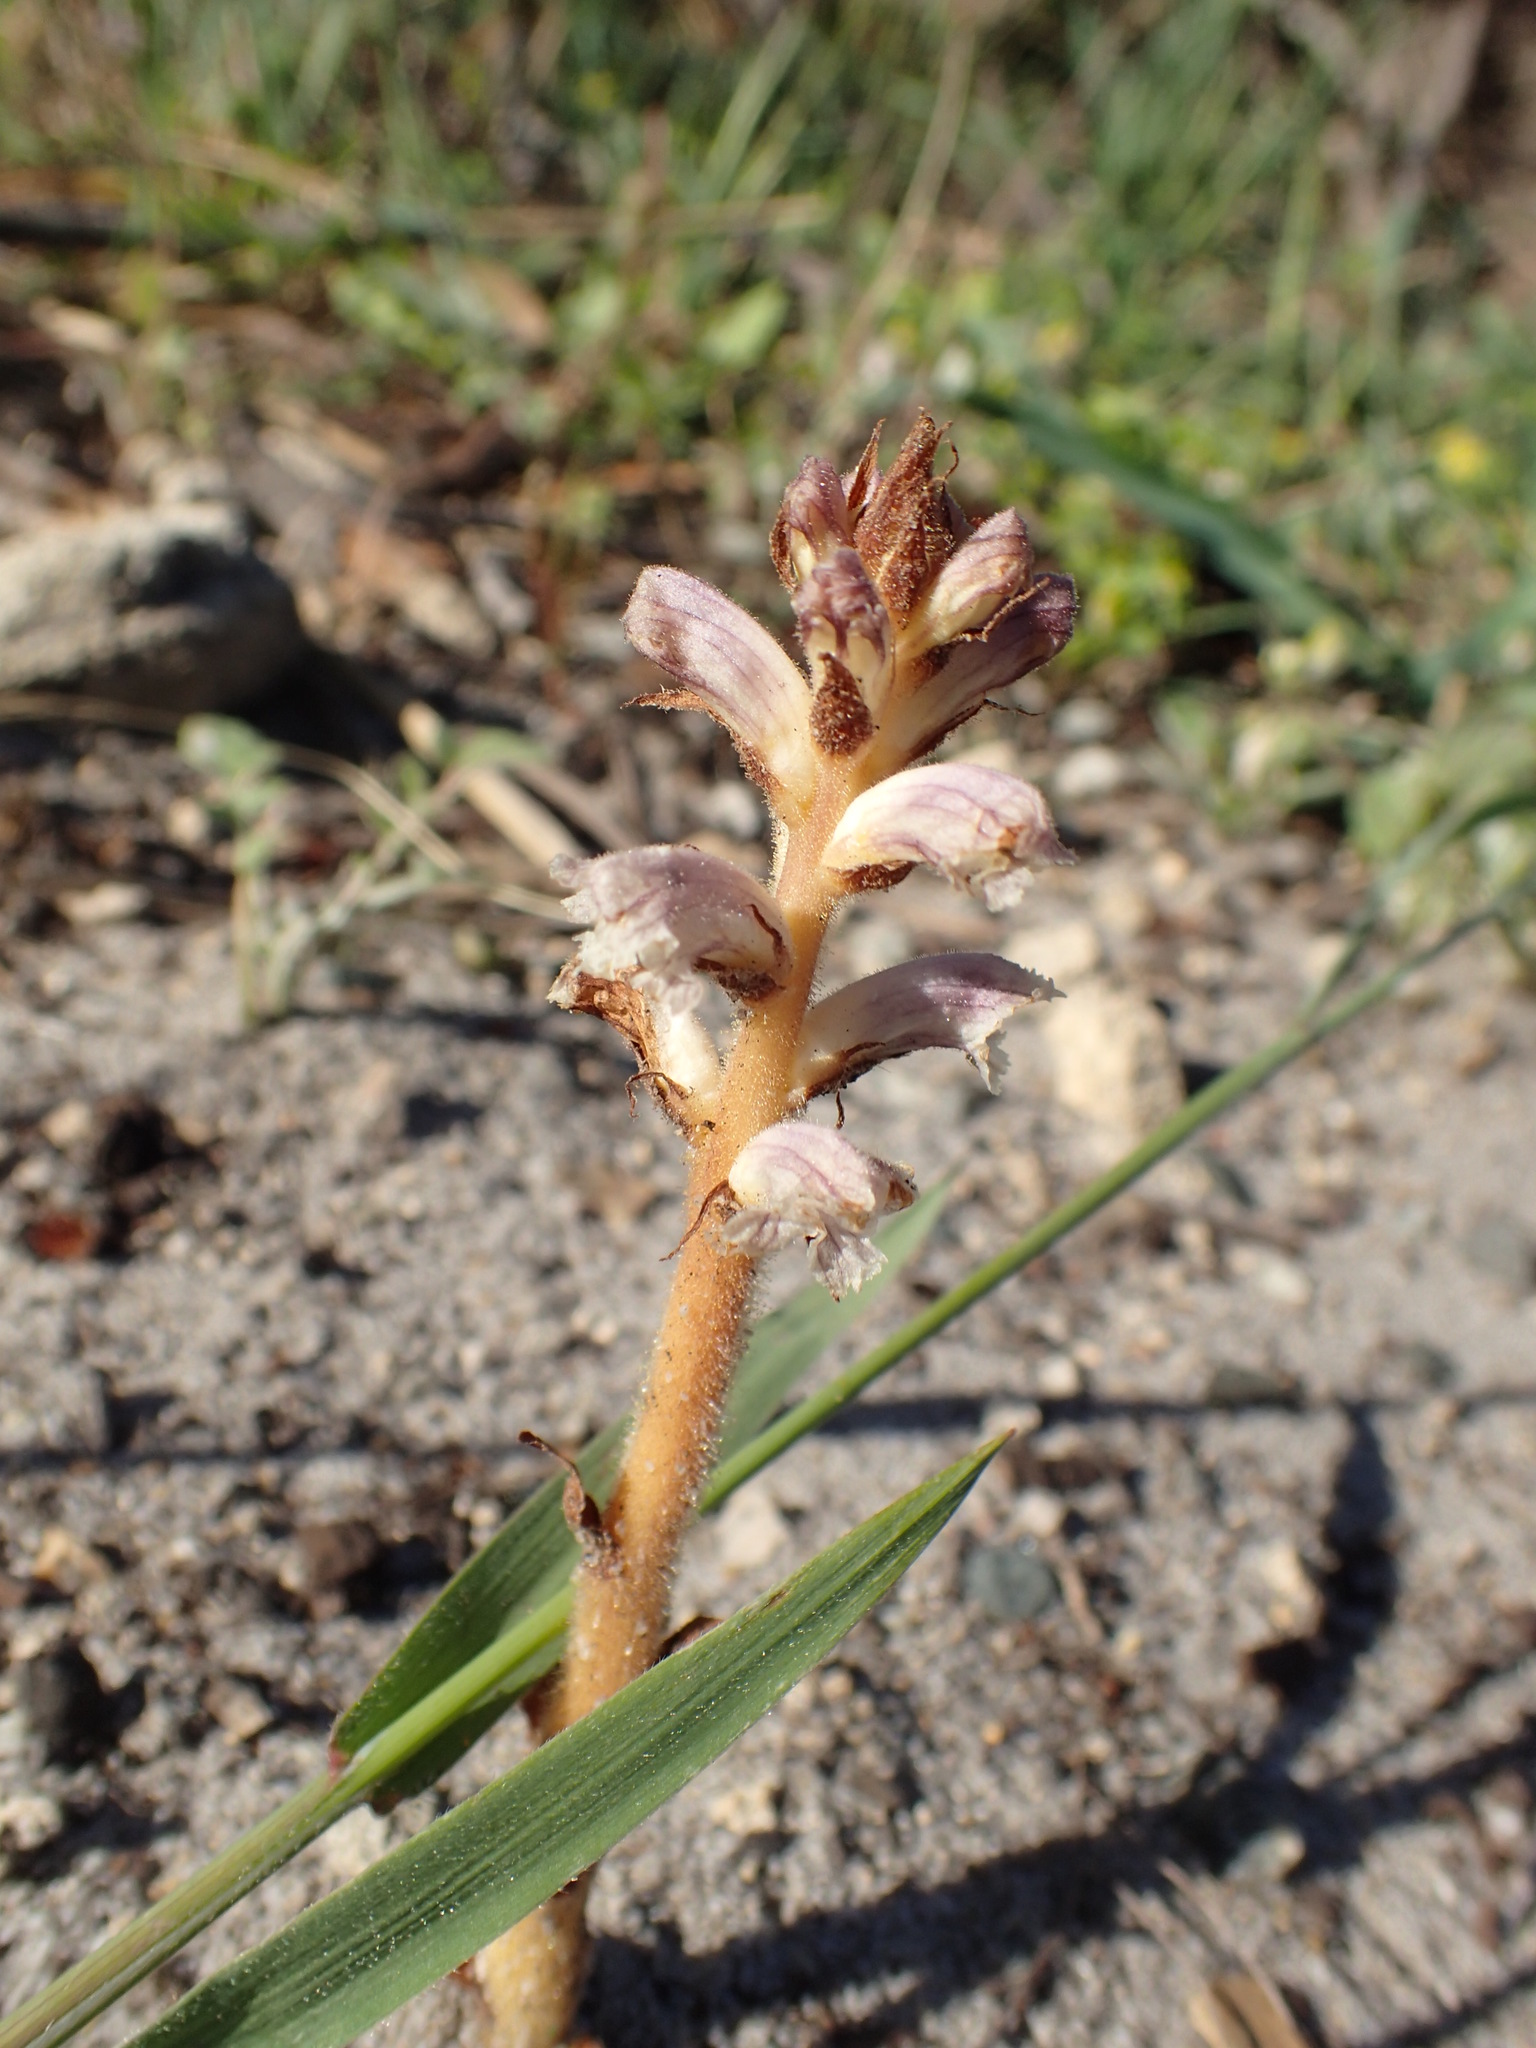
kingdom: Plantae
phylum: Tracheophyta
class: Magnoliopsida
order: Lamiales
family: Orobanchaceae
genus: Orobanche
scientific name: Orobanche minor
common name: Common broomrape
